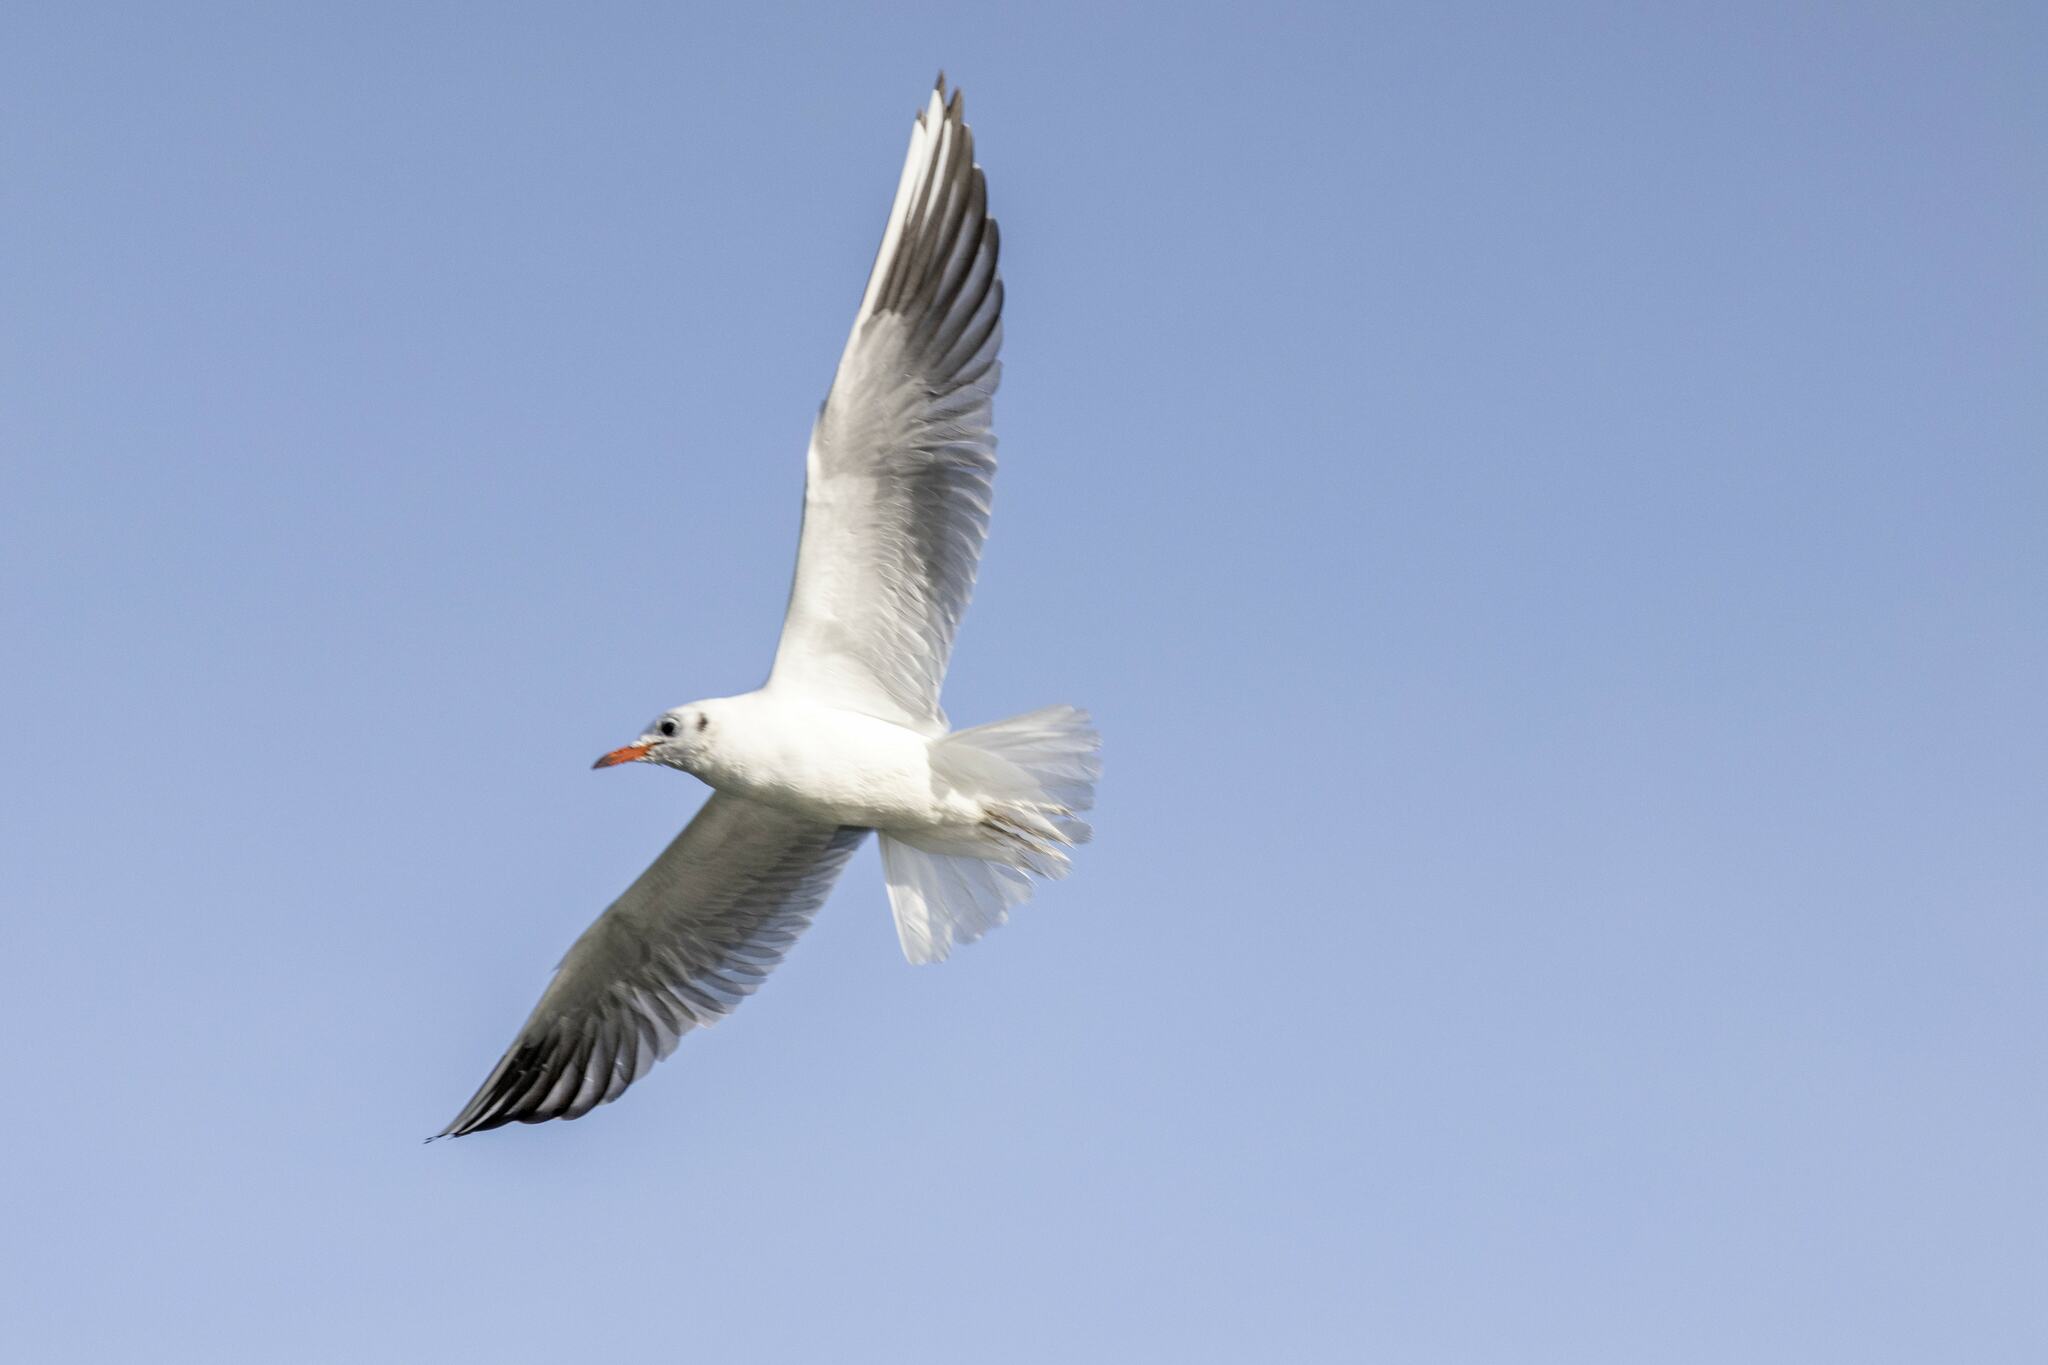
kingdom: Animalia
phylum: Chordata
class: Aves
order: Charadriiformes
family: Laridae
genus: Chroicocephalus
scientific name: Chroicocephalus ridibundus
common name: Black-headed gull
